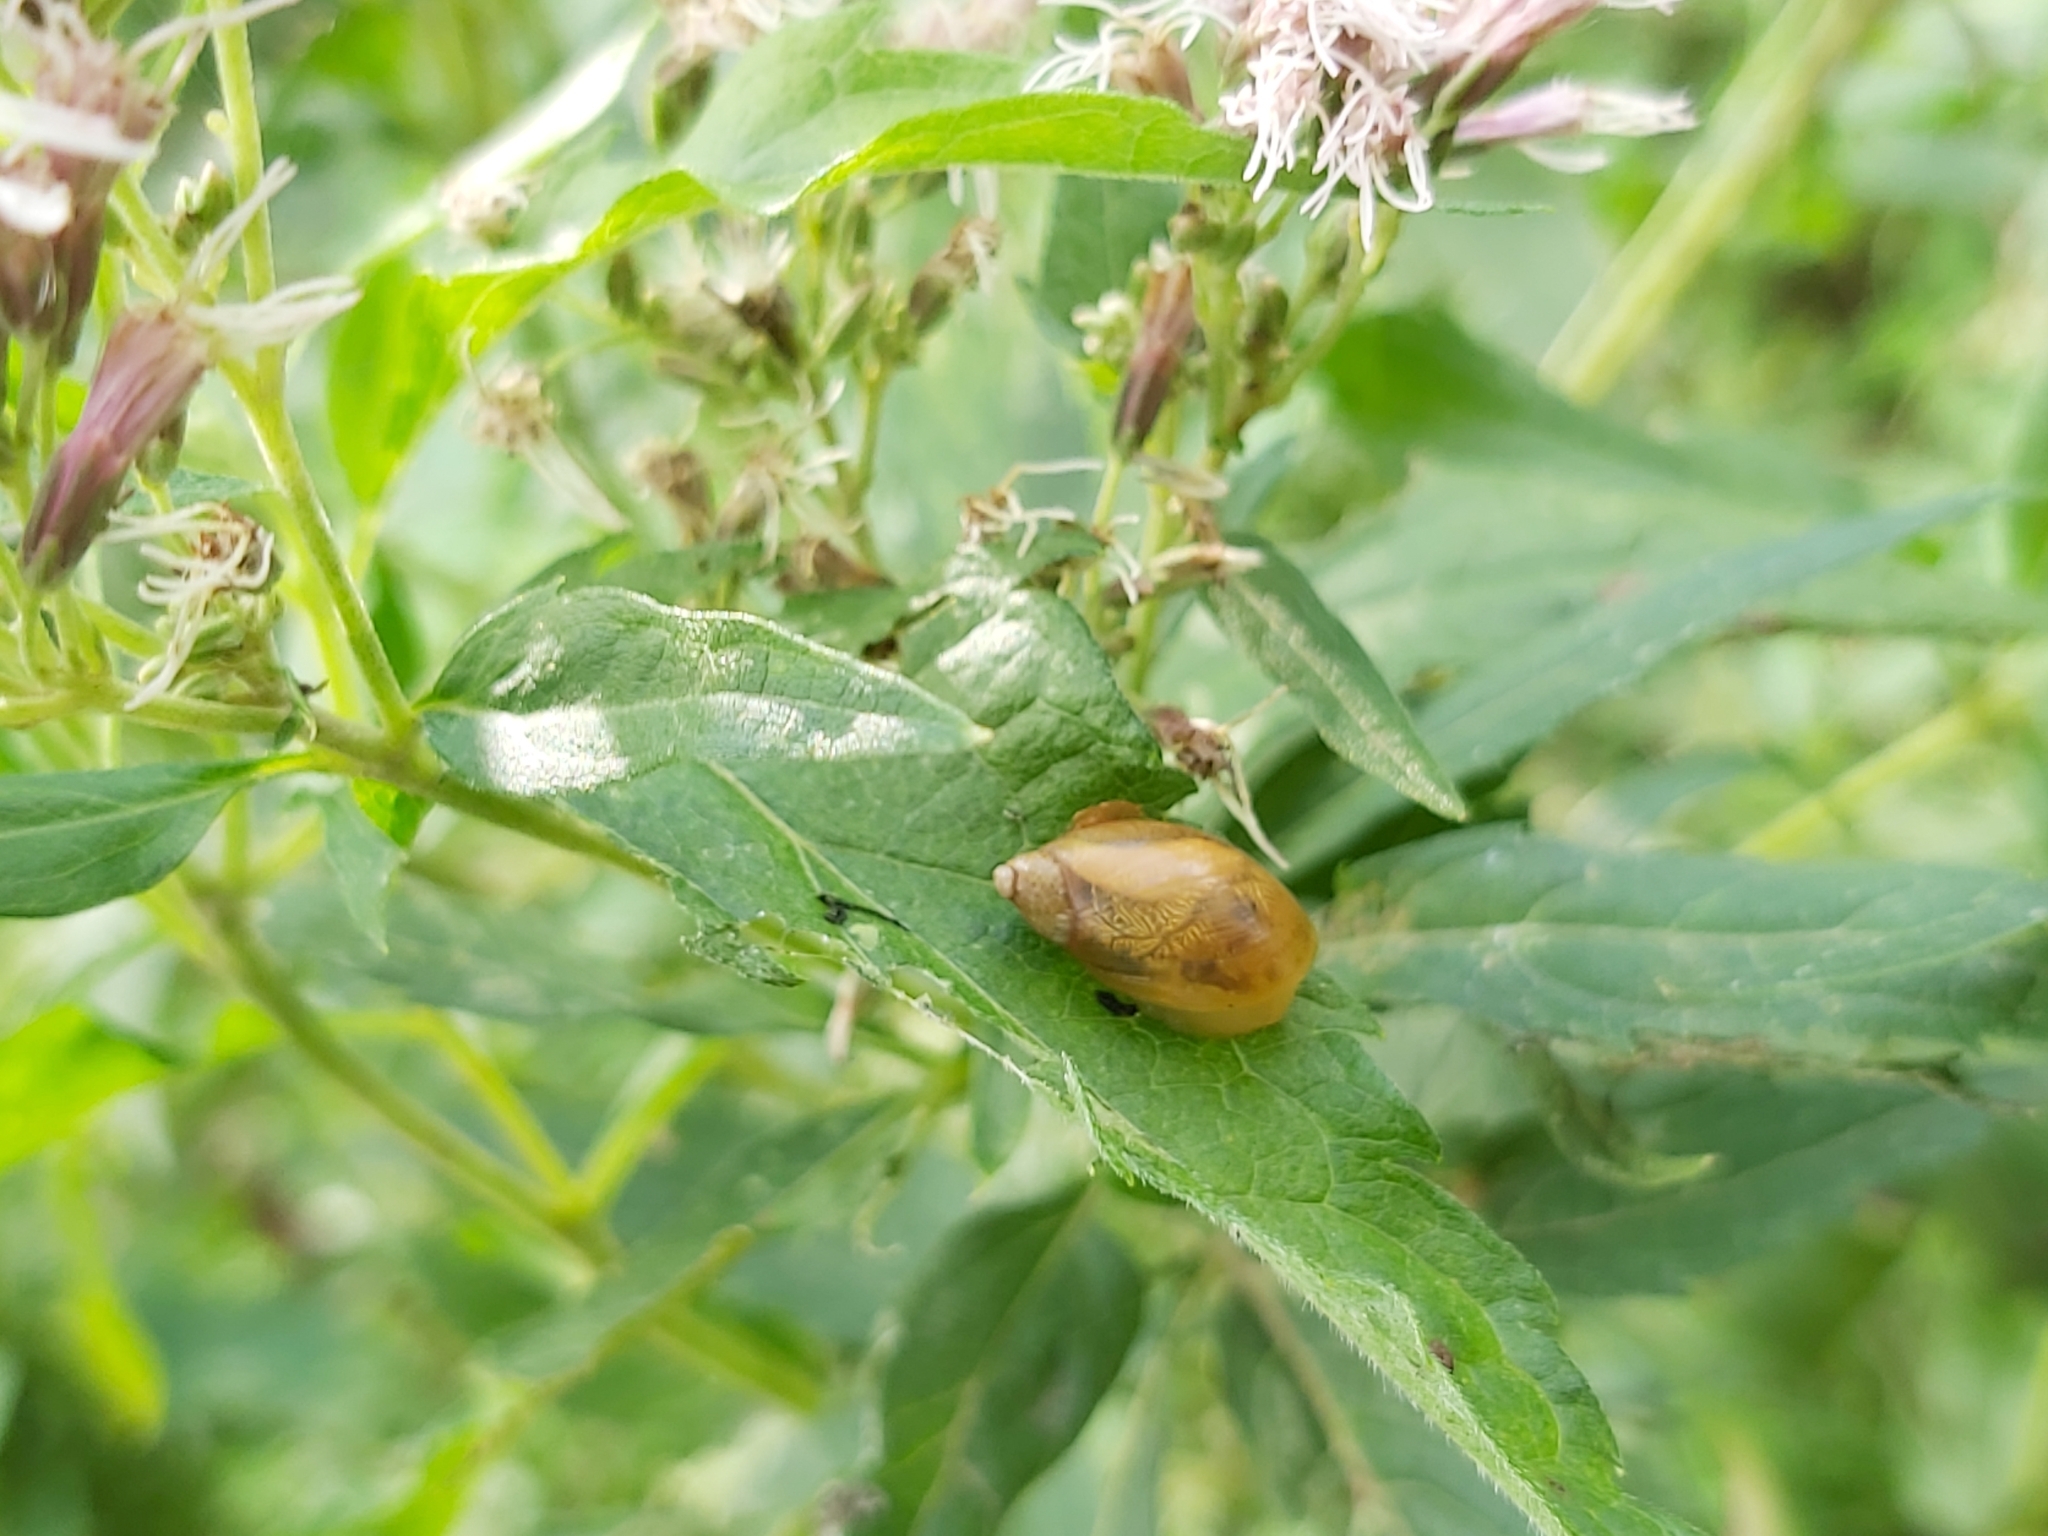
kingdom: Animalia
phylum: Mollusca
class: Gastropoda
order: Stylommatophora
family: Succineidae
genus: Succinea
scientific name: Succinea putris
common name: European ambersnail
